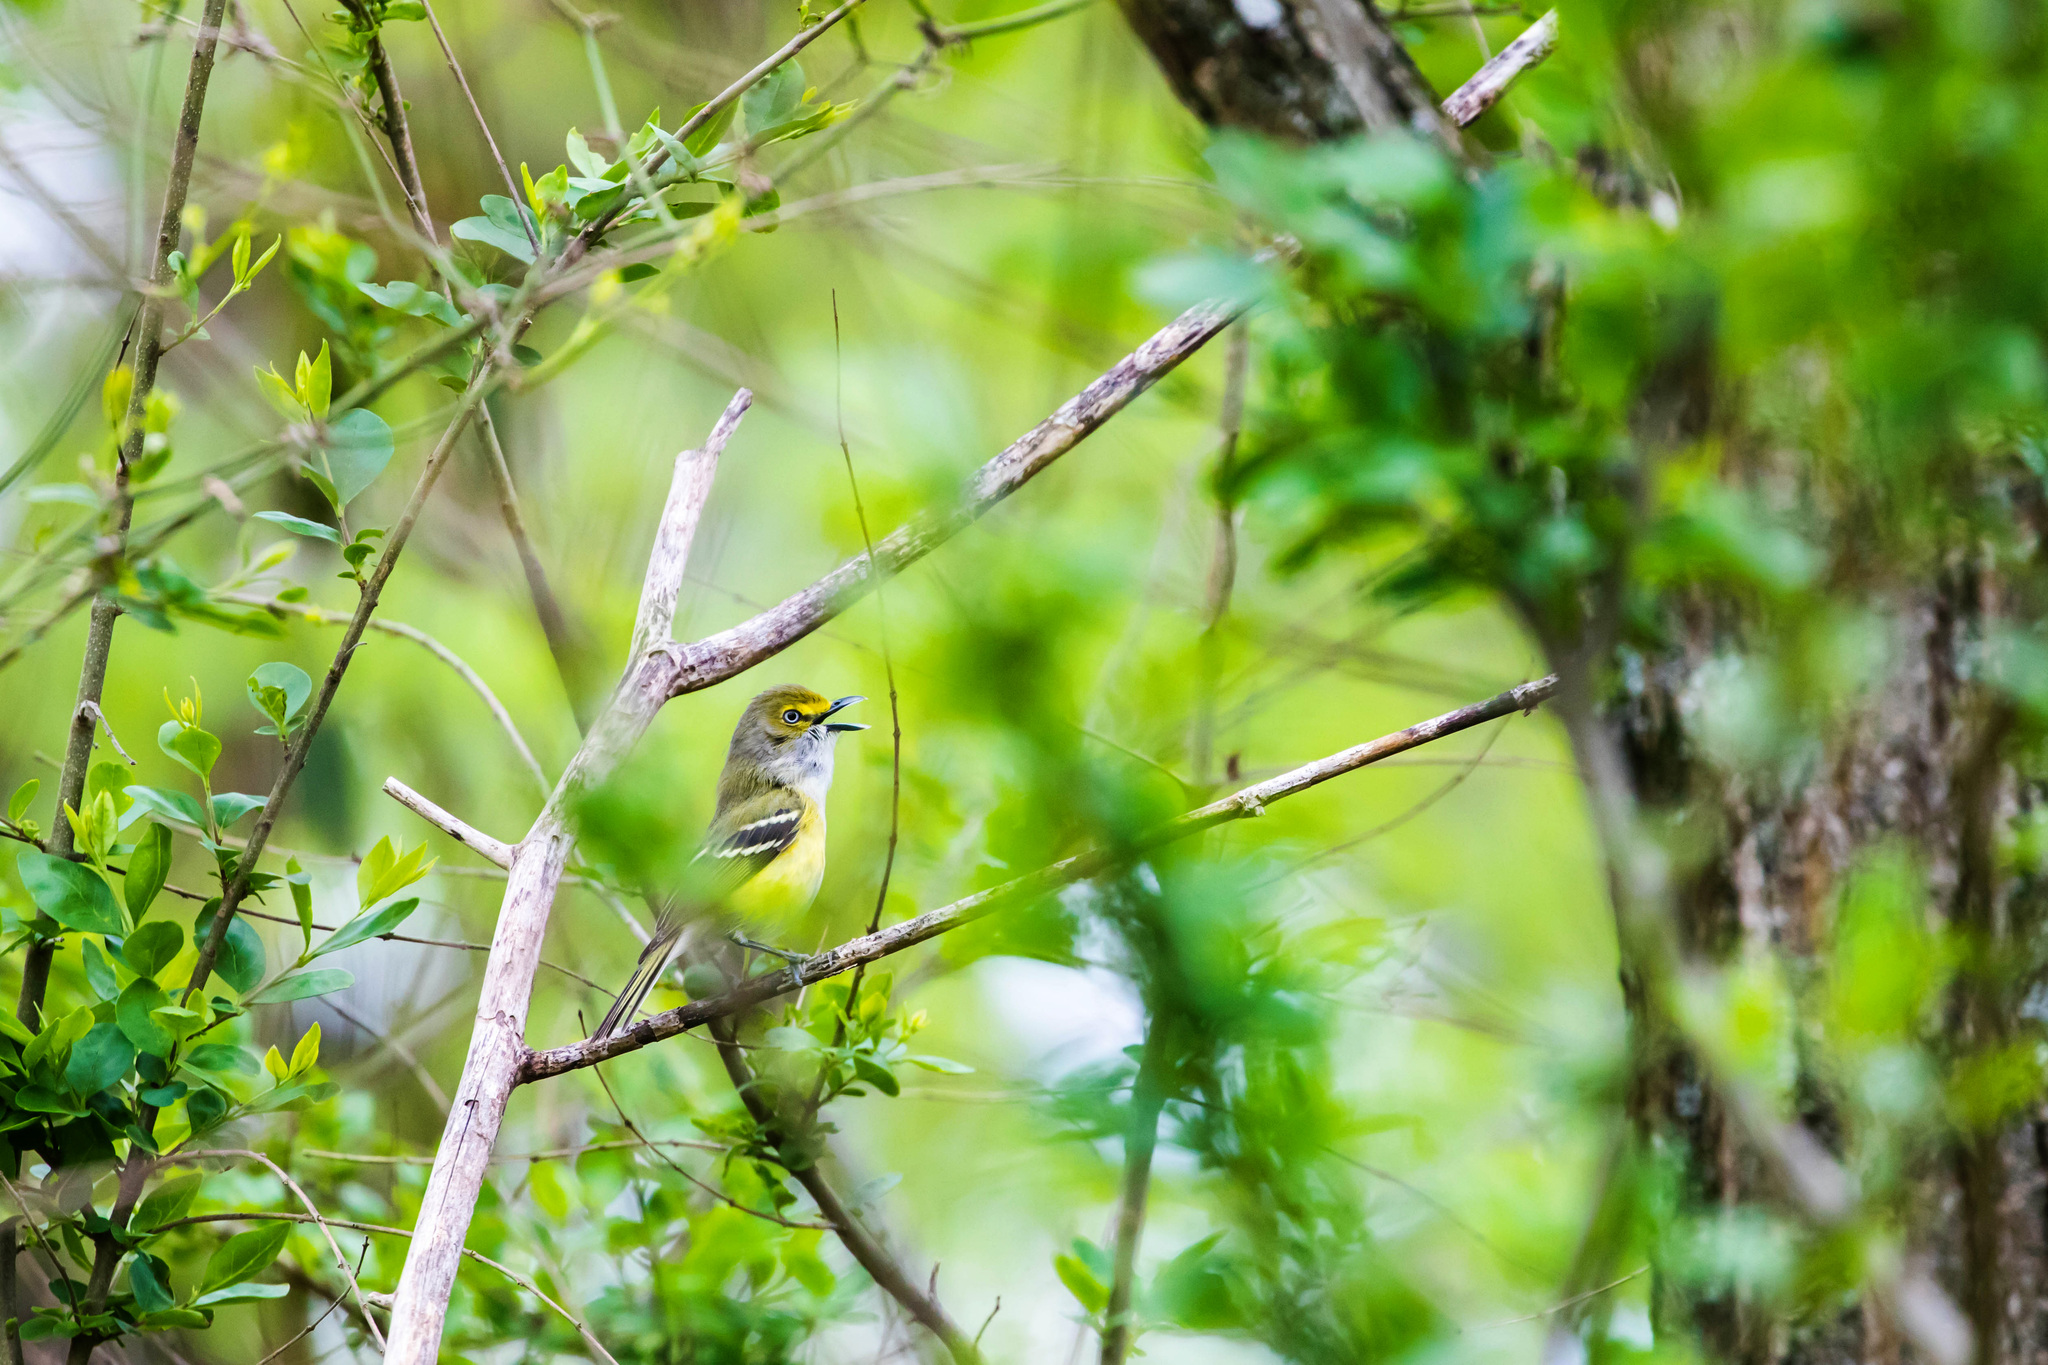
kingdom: Animalia
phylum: Chordata
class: Aves
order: Passeriformes
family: Vireonidae
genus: Vireo
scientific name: Vireo griseus
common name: White-eyed vireo
